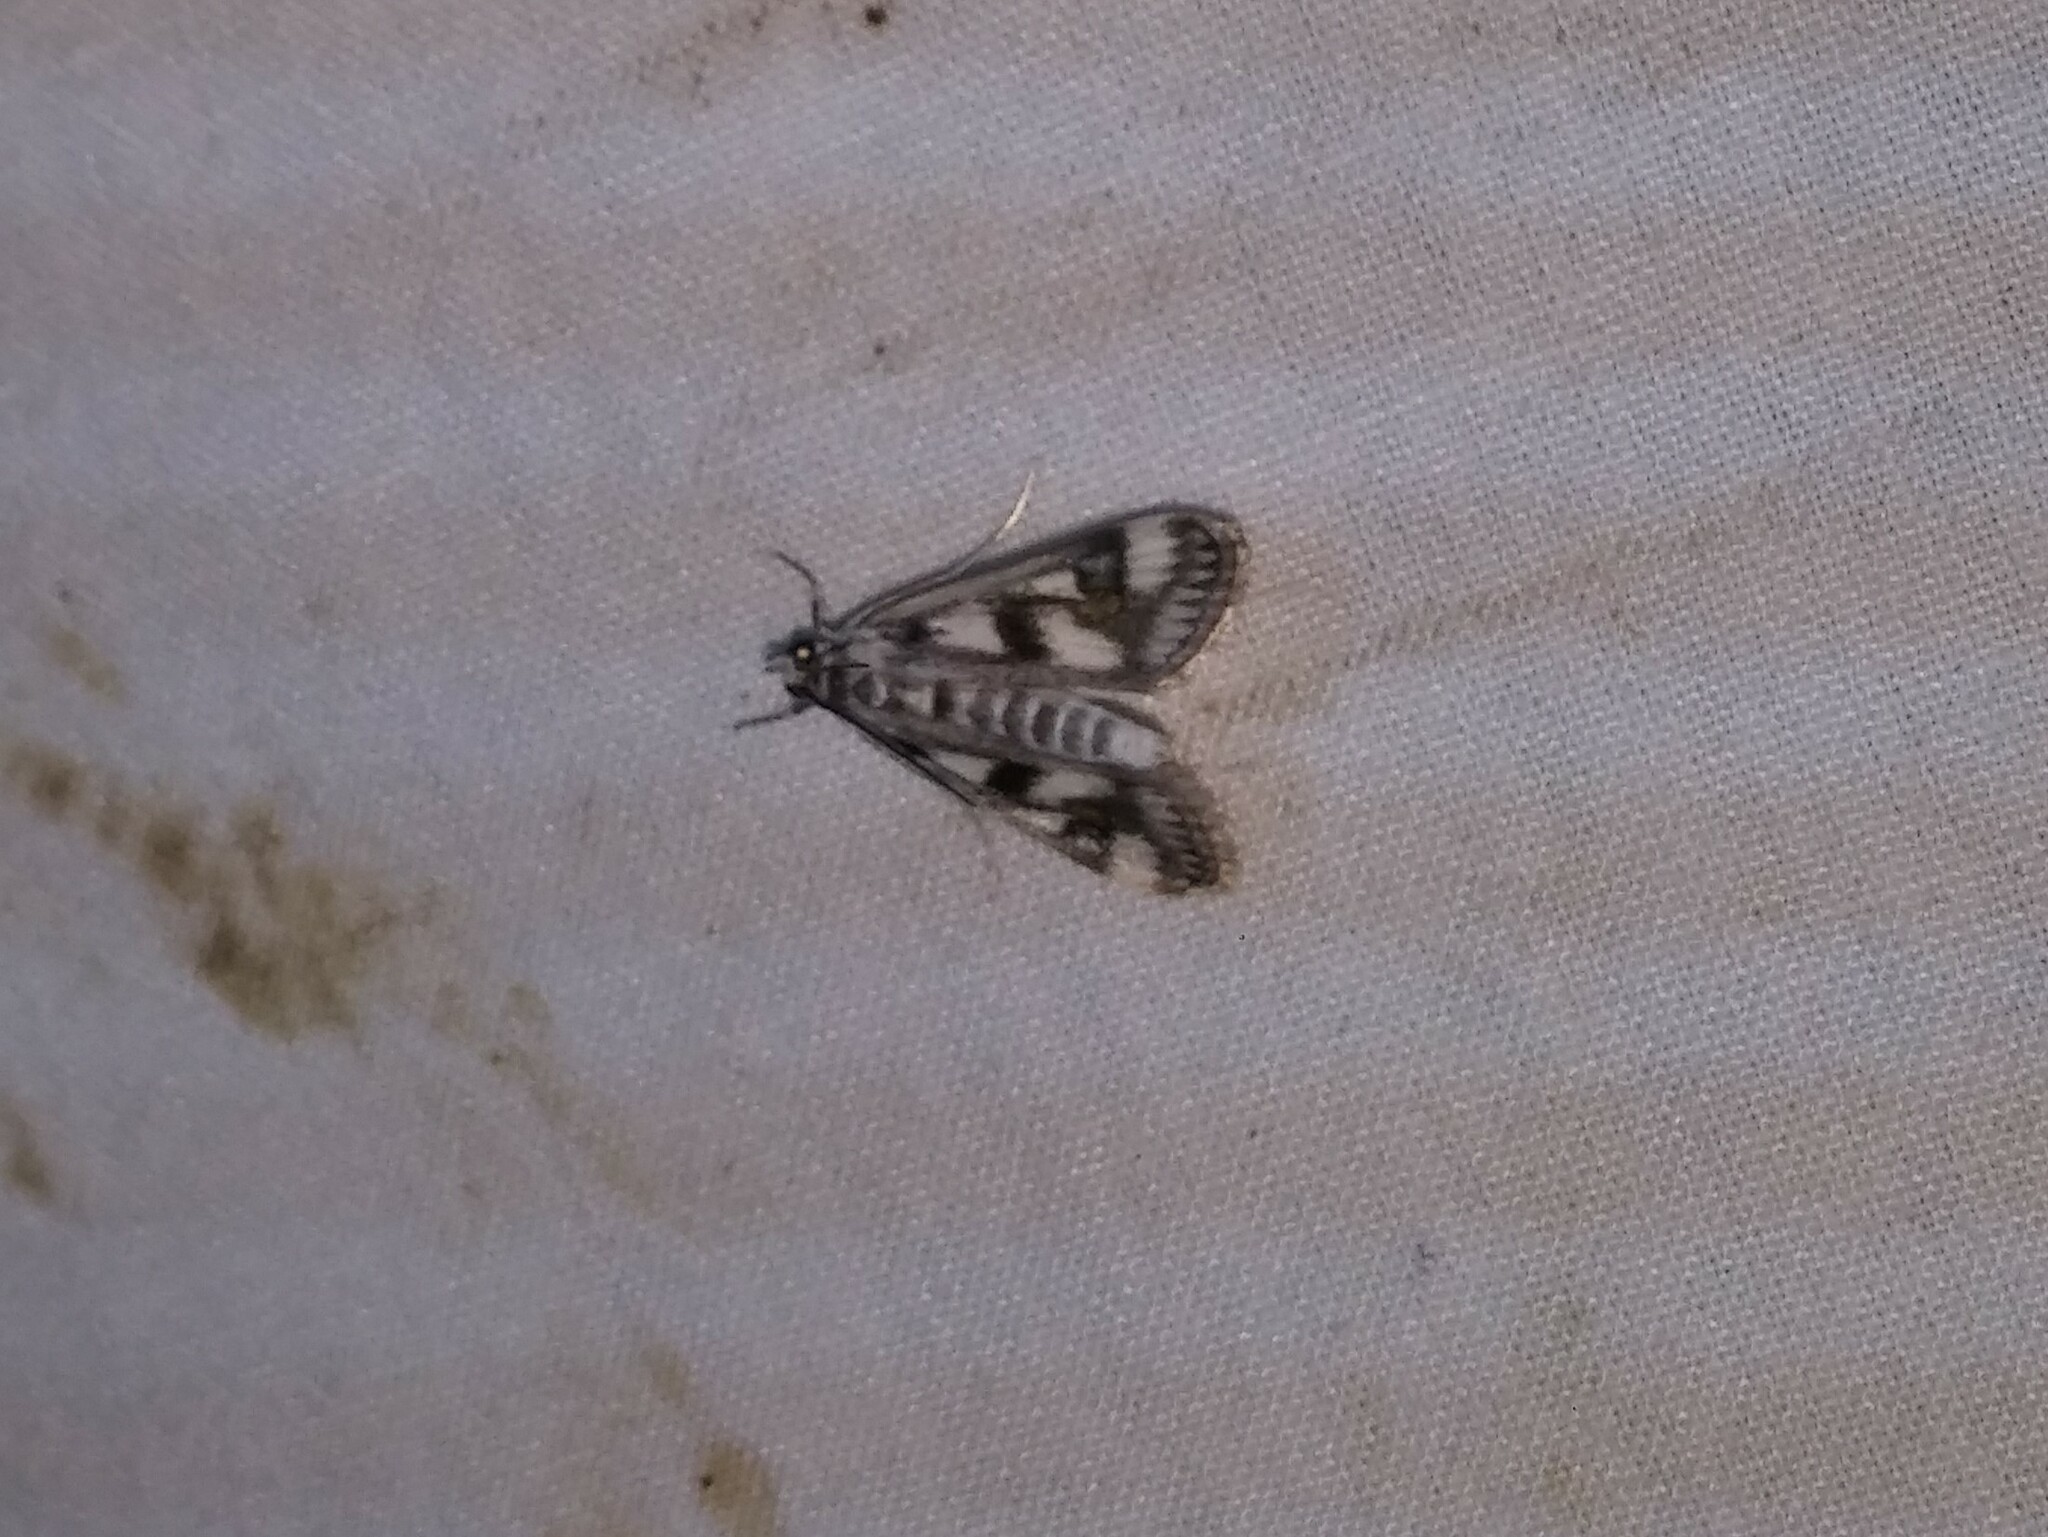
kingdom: Animalia
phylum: Arthropoda
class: Insecta
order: Lepidoptera
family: Crambidae
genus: Parapoynx
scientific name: Parapoynx maculalis
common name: Polymorphic pondweed moth
